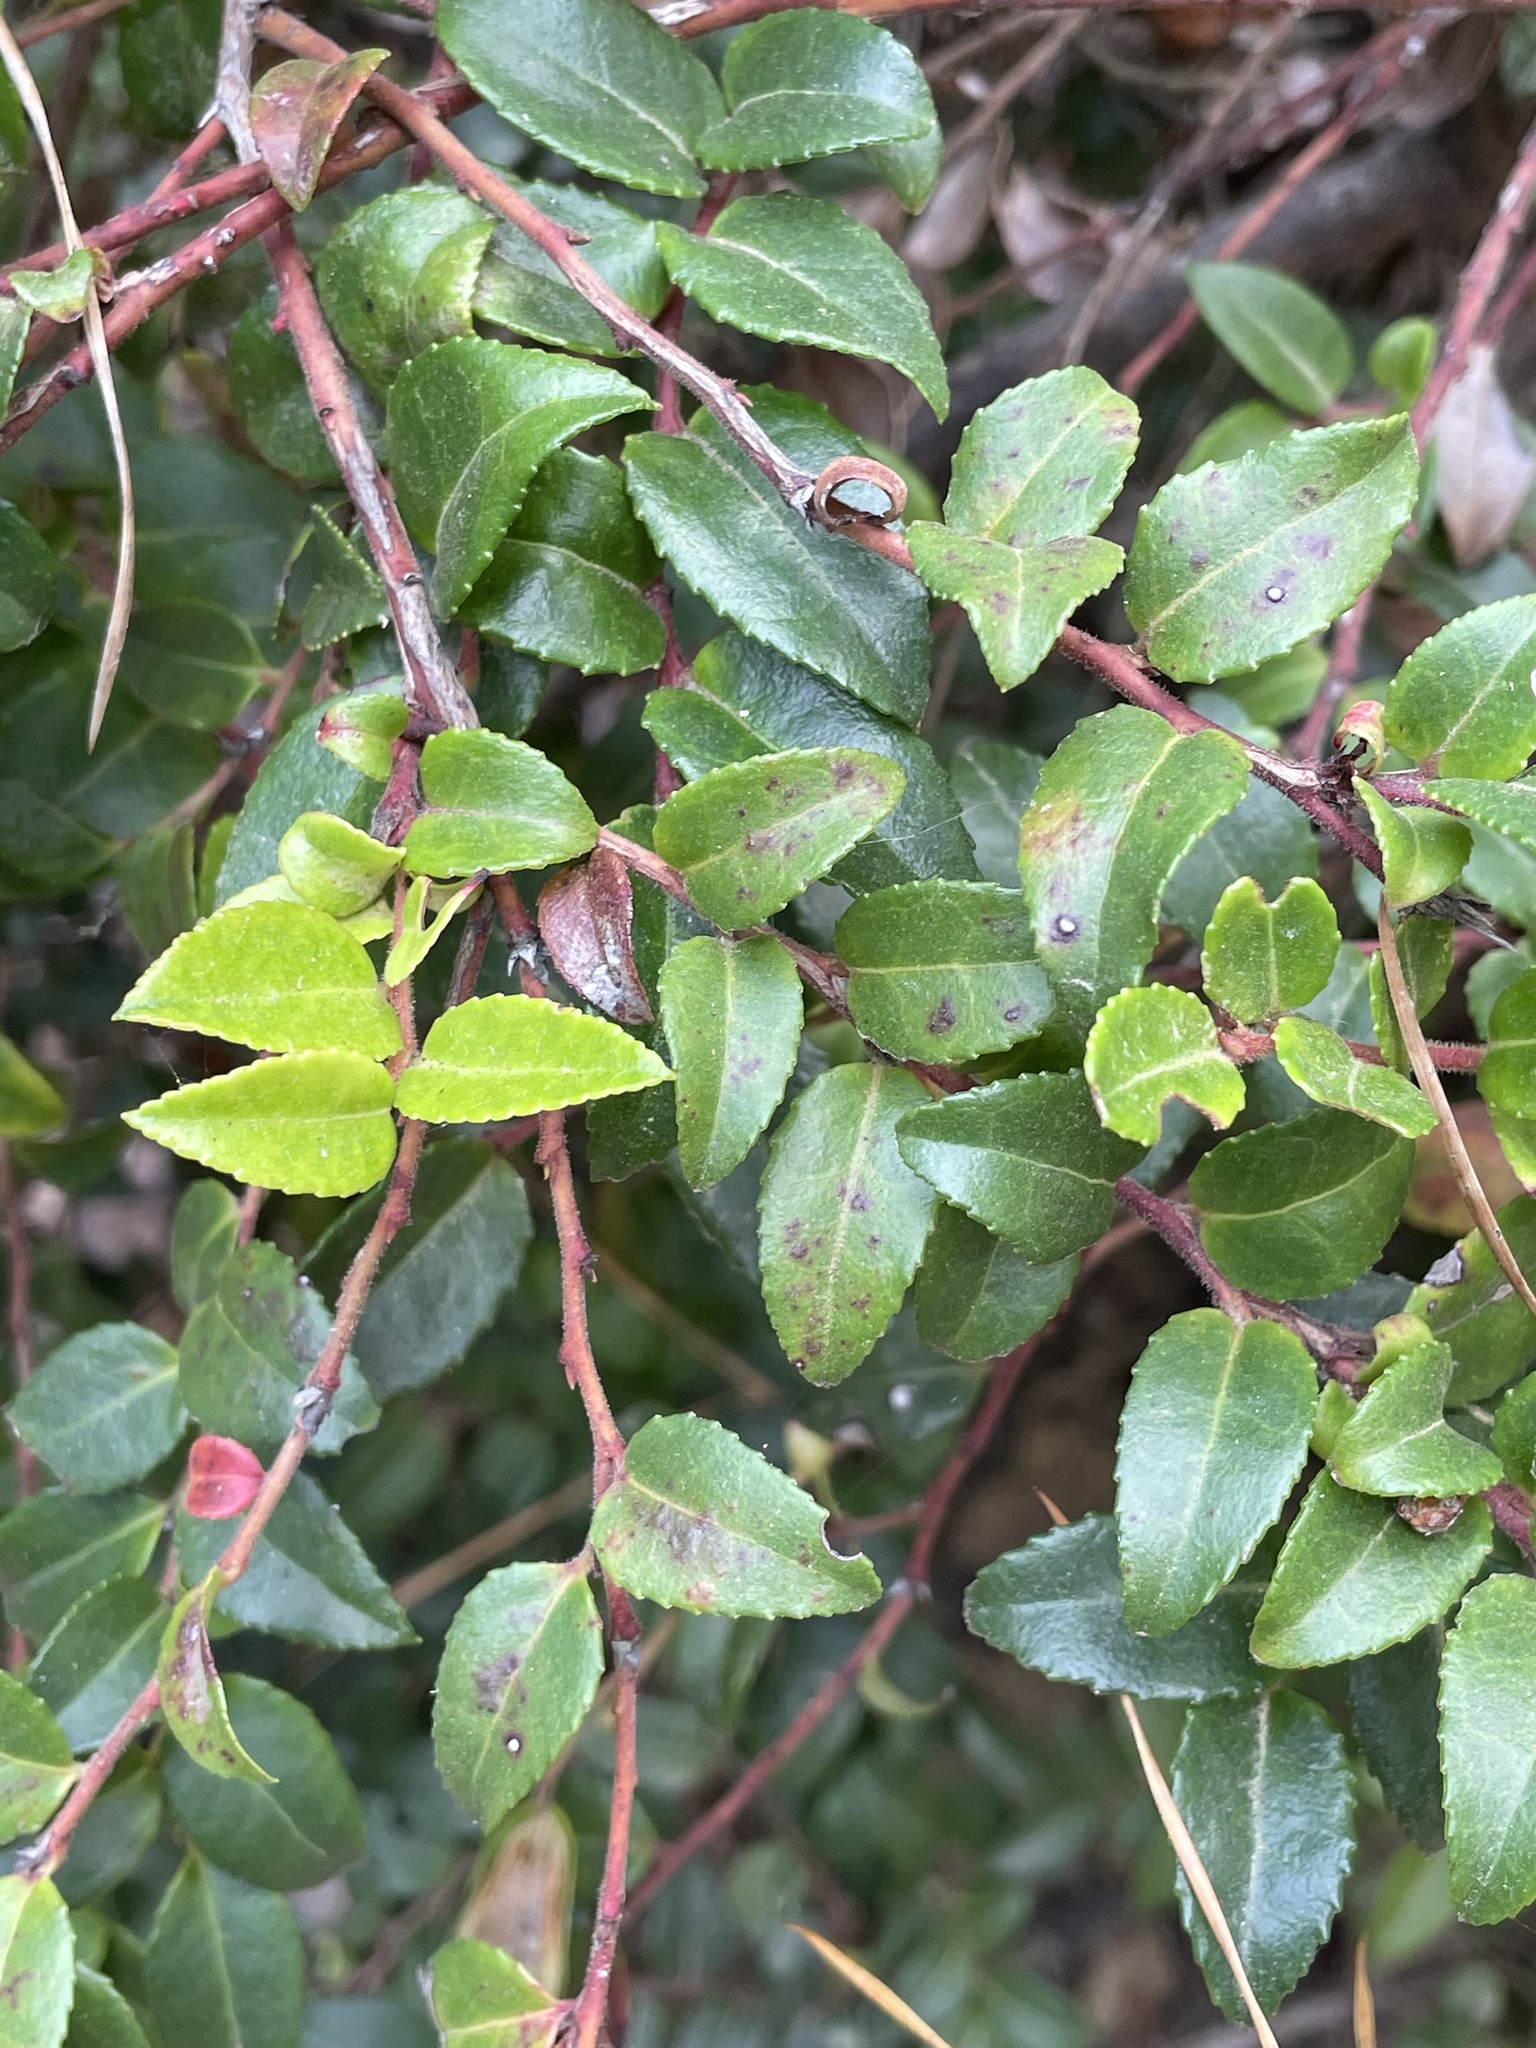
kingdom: Plantae
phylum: Tracheophyta
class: Magnoliopsida
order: Ericales
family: Ericaceae
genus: Vaccinium
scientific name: Vaccinium ovatum
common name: California-huckleberry
